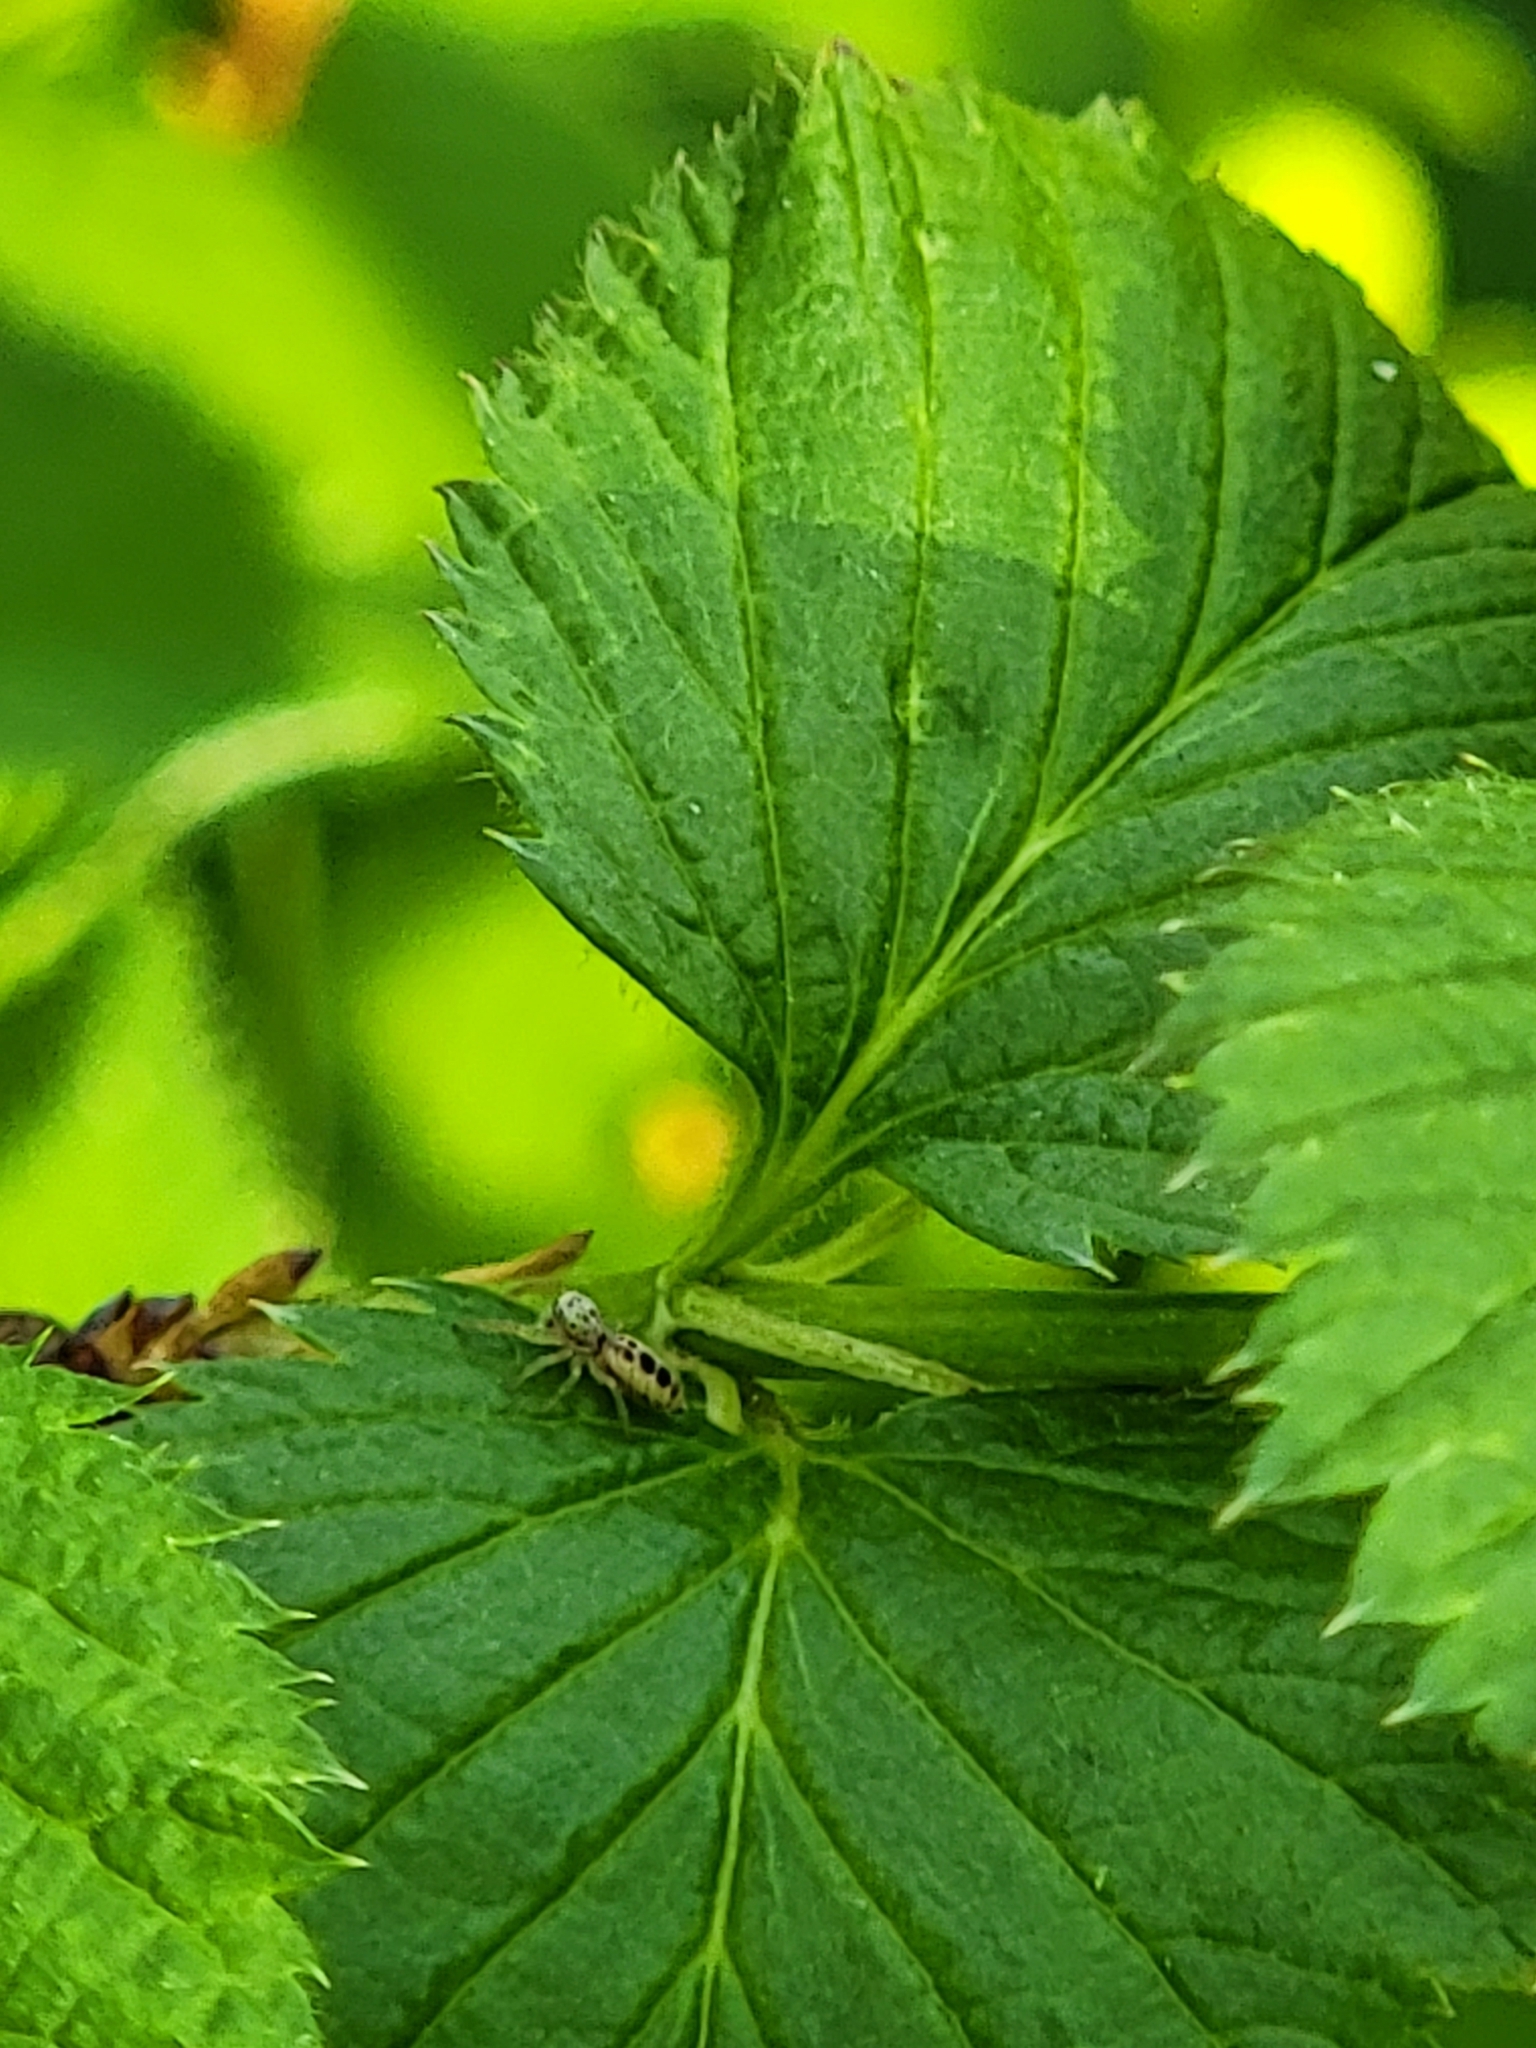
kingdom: Animalia
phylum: Arthropoda
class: Arachnida
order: Araneae
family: Salticidae
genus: Hentzia
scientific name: Hentzia mitrata
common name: White-jawed jumping spider
